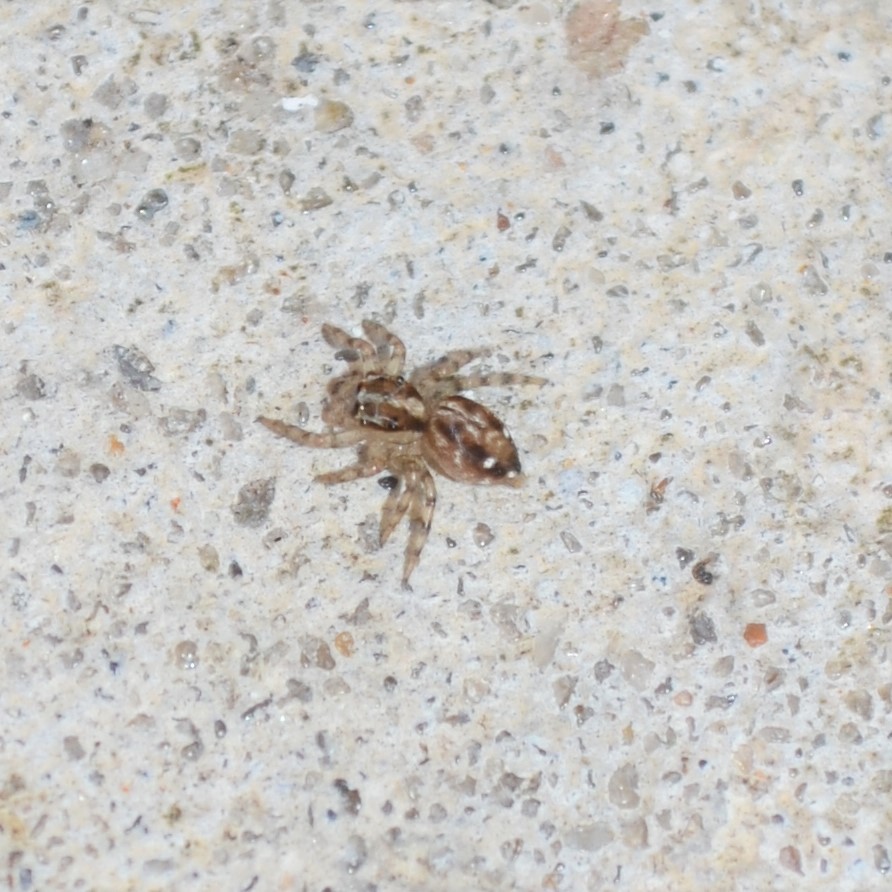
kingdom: Animalia
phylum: Arthropoda
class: Arachnida
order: Araneae
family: Salticidae
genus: Plexippus
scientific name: Plexippus paykulli
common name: Pantropical jumper
